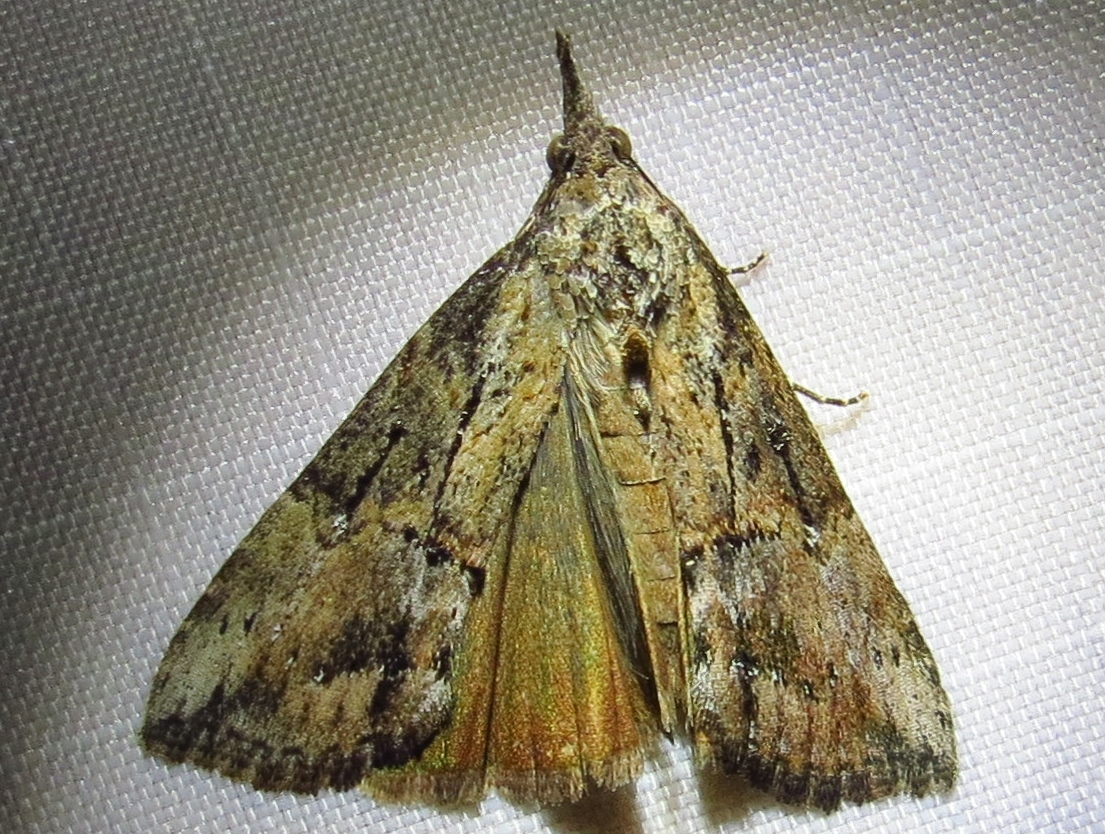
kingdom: Animalia
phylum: Arthropoda
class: Insecta
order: Lepidoptera
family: Erebidae
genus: Hypena
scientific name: Hypena scabra
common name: Green cloverworm
